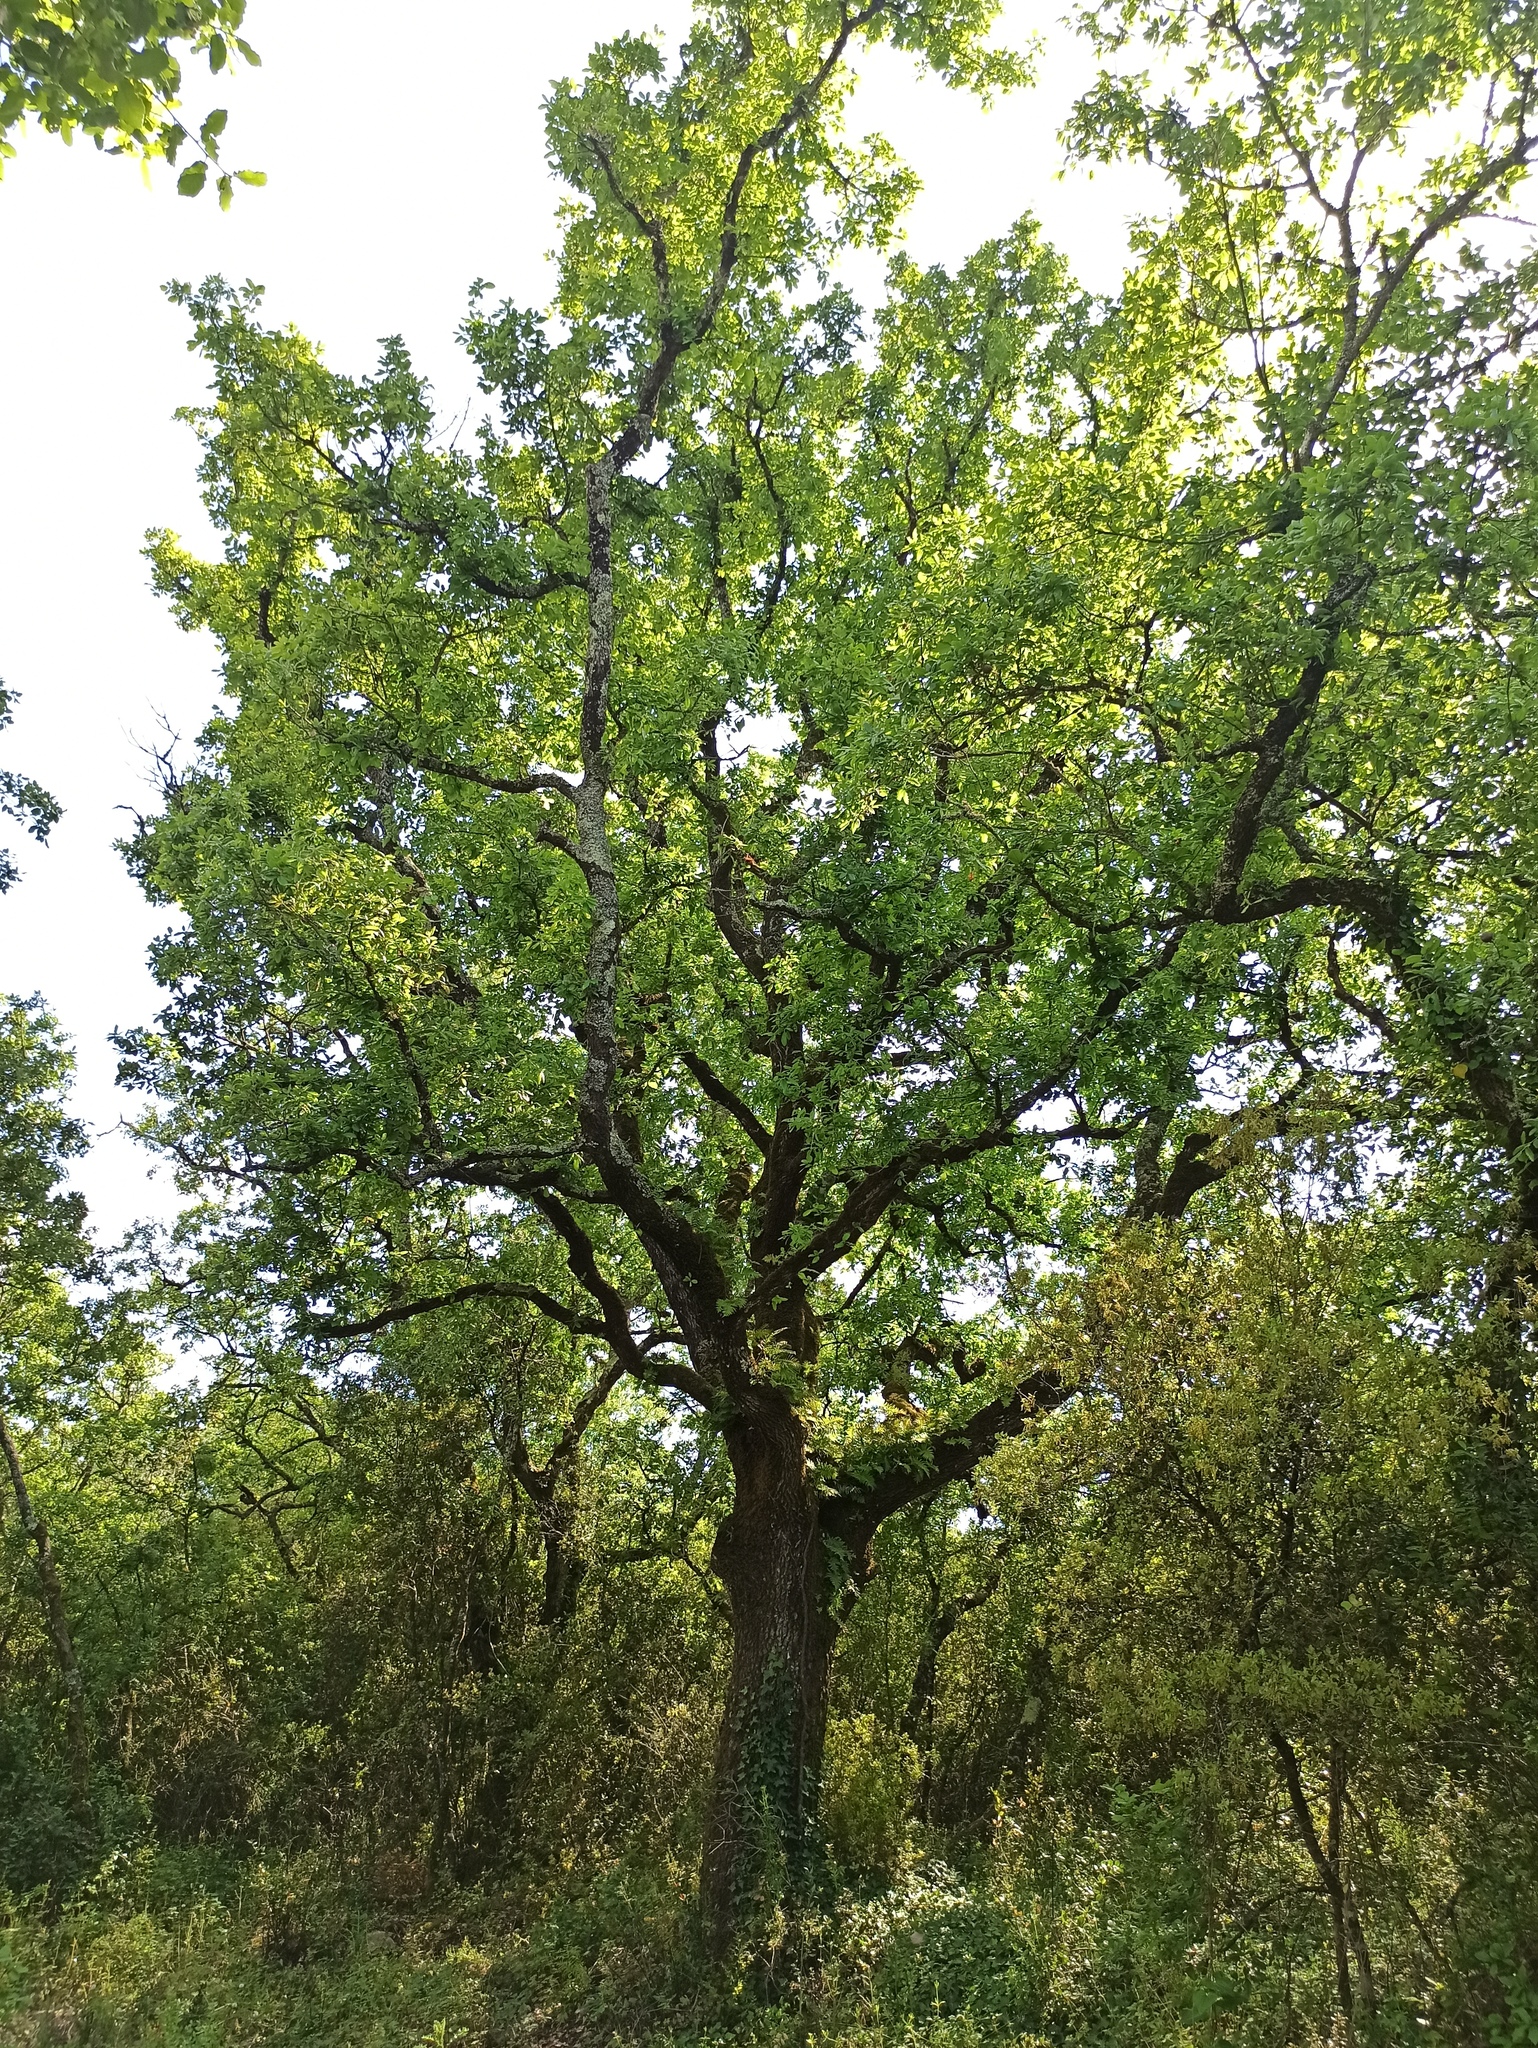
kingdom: Plantae
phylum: Tracheophyta
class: Magnoliopsida
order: Fagales
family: Fagaceae
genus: Quercus
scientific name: Quercus faginea
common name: Gall oak tree
